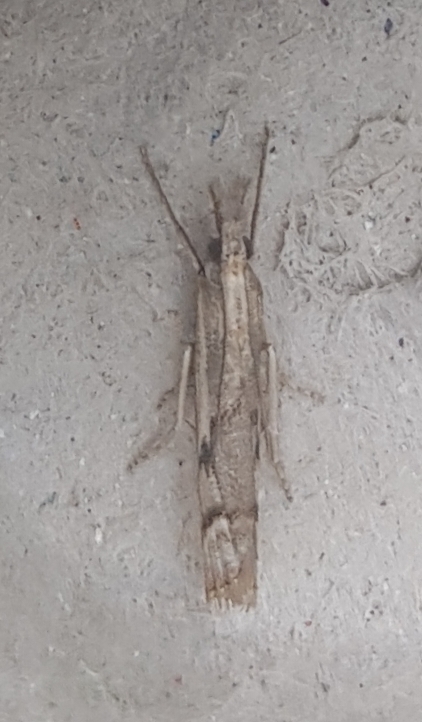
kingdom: Animalia
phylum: Arthropoda
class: Insecta
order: Lepidoptera
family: Crambidae
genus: Agriphila
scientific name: Agriphila geniculea
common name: Elbow-stripe grass-veneer
